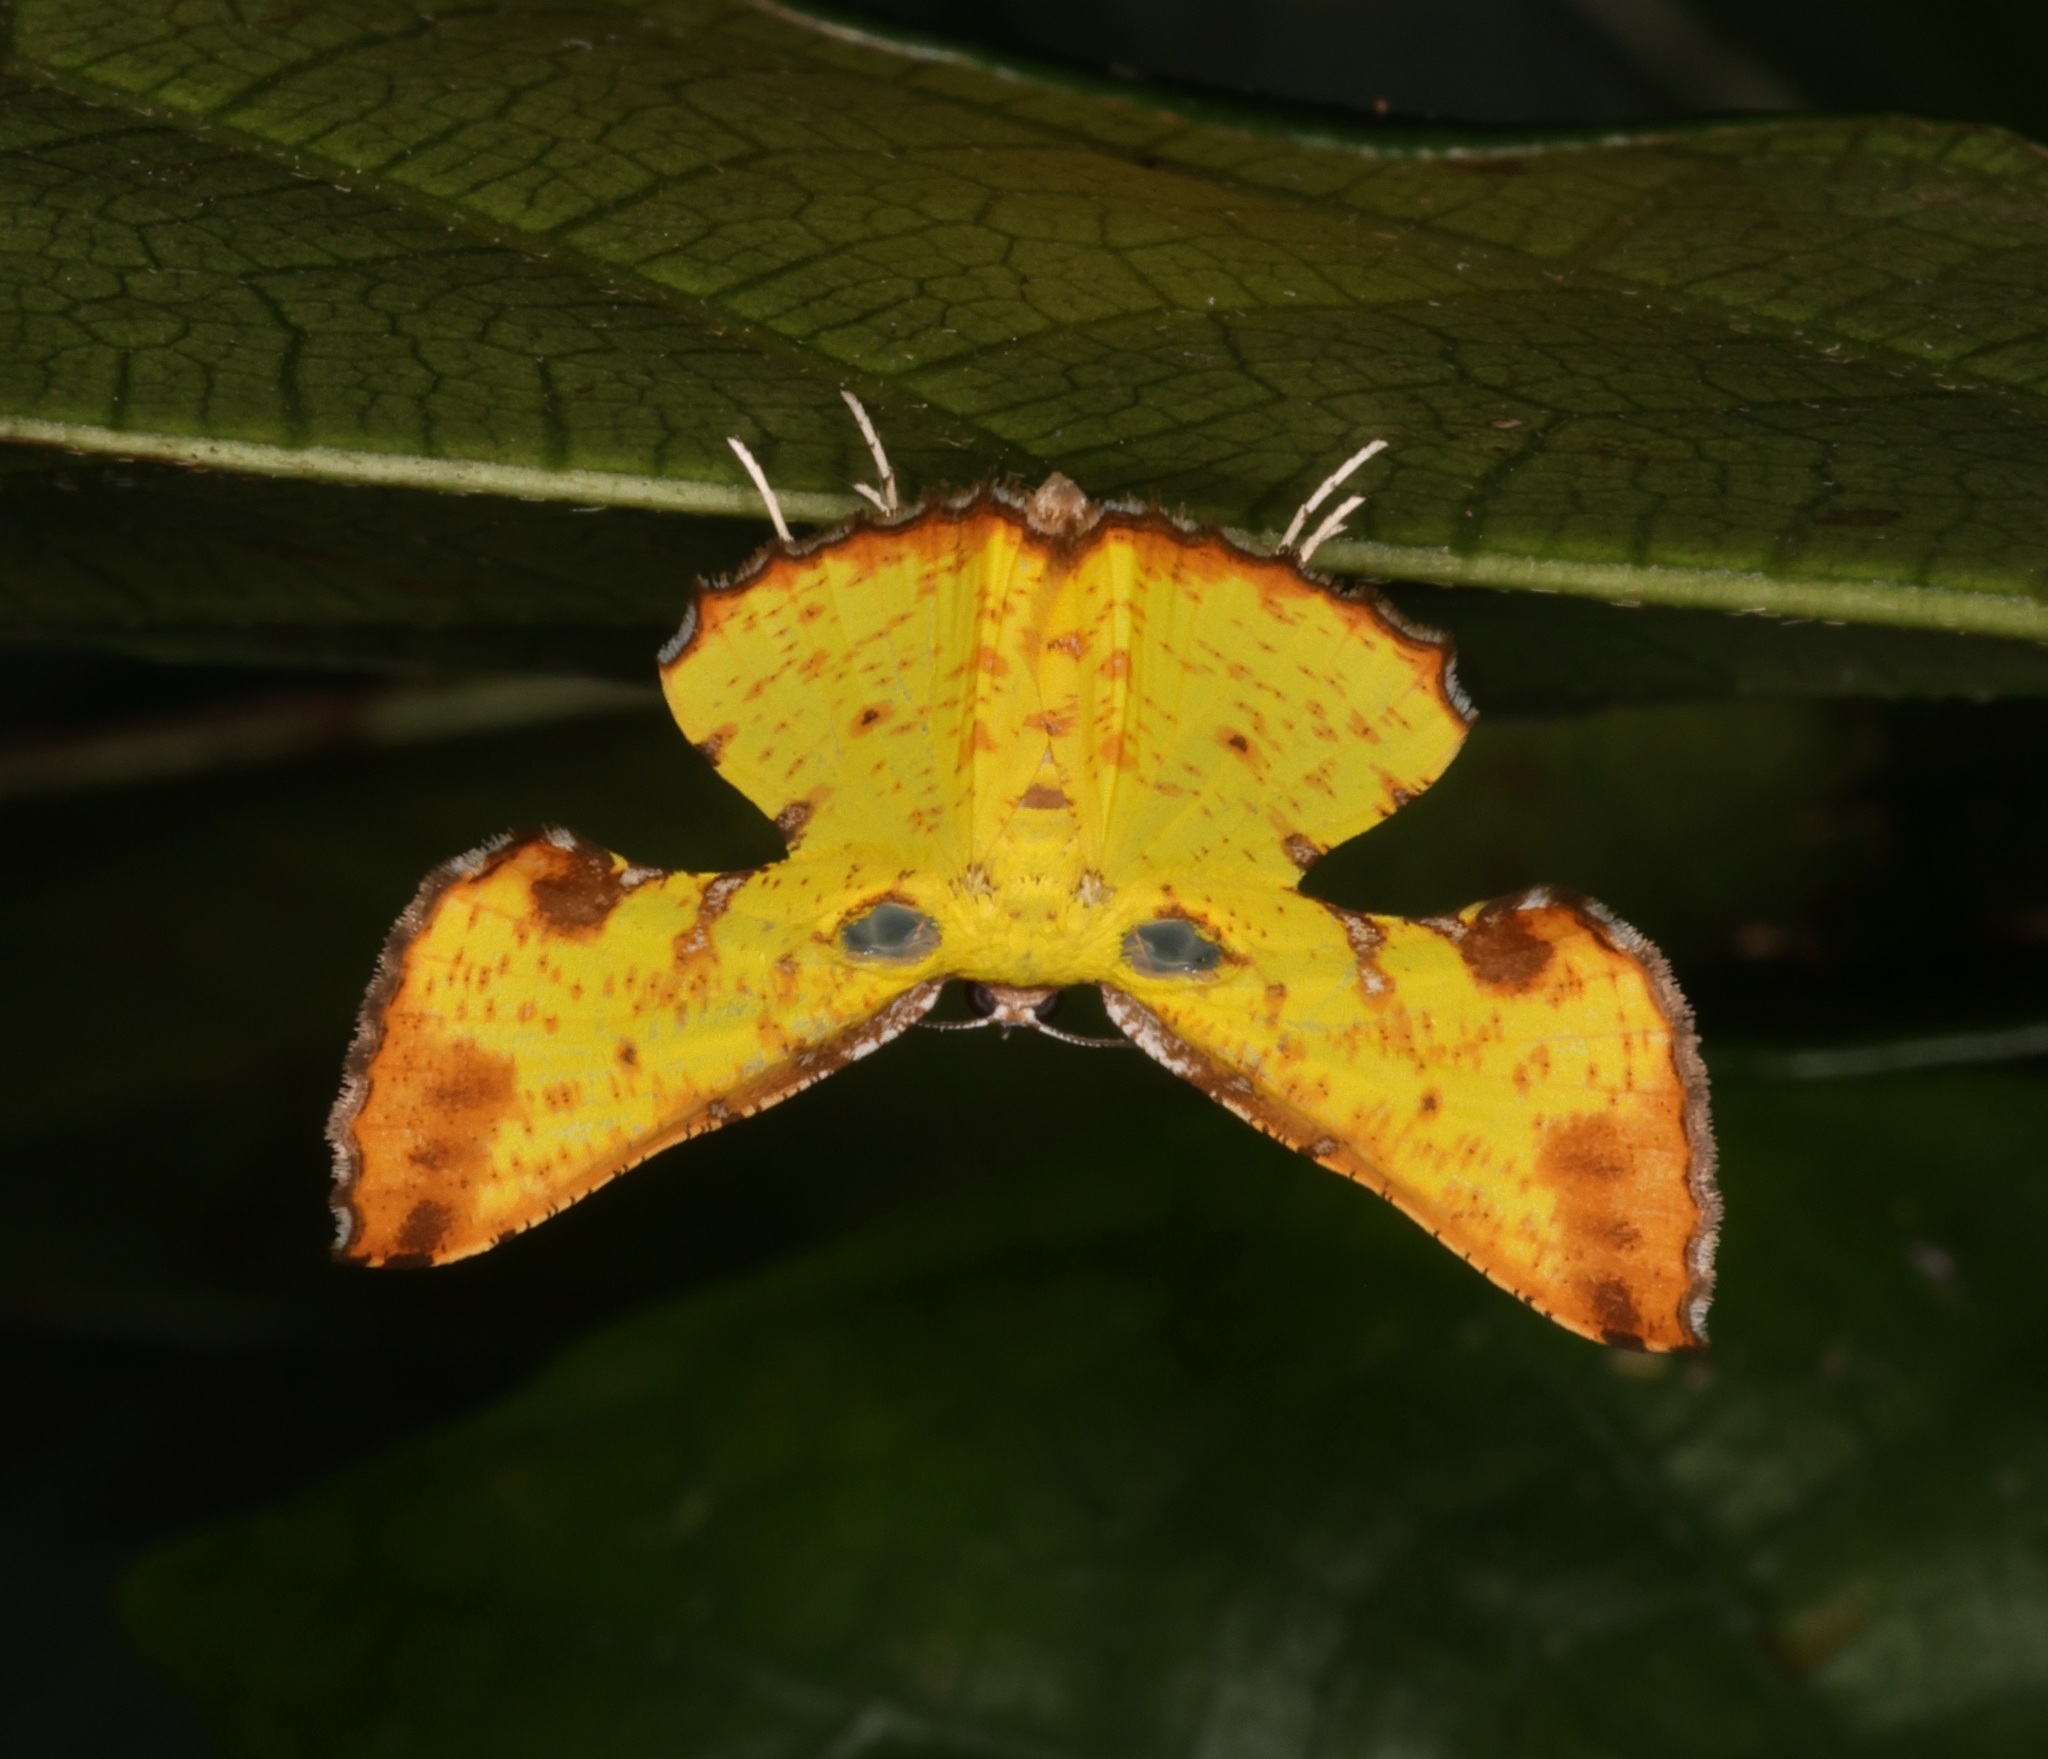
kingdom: Animalia
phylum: Arthropoda
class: Insecta
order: Lepidoptera
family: Geometridae
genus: Corymica
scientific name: Corymica arnearia
